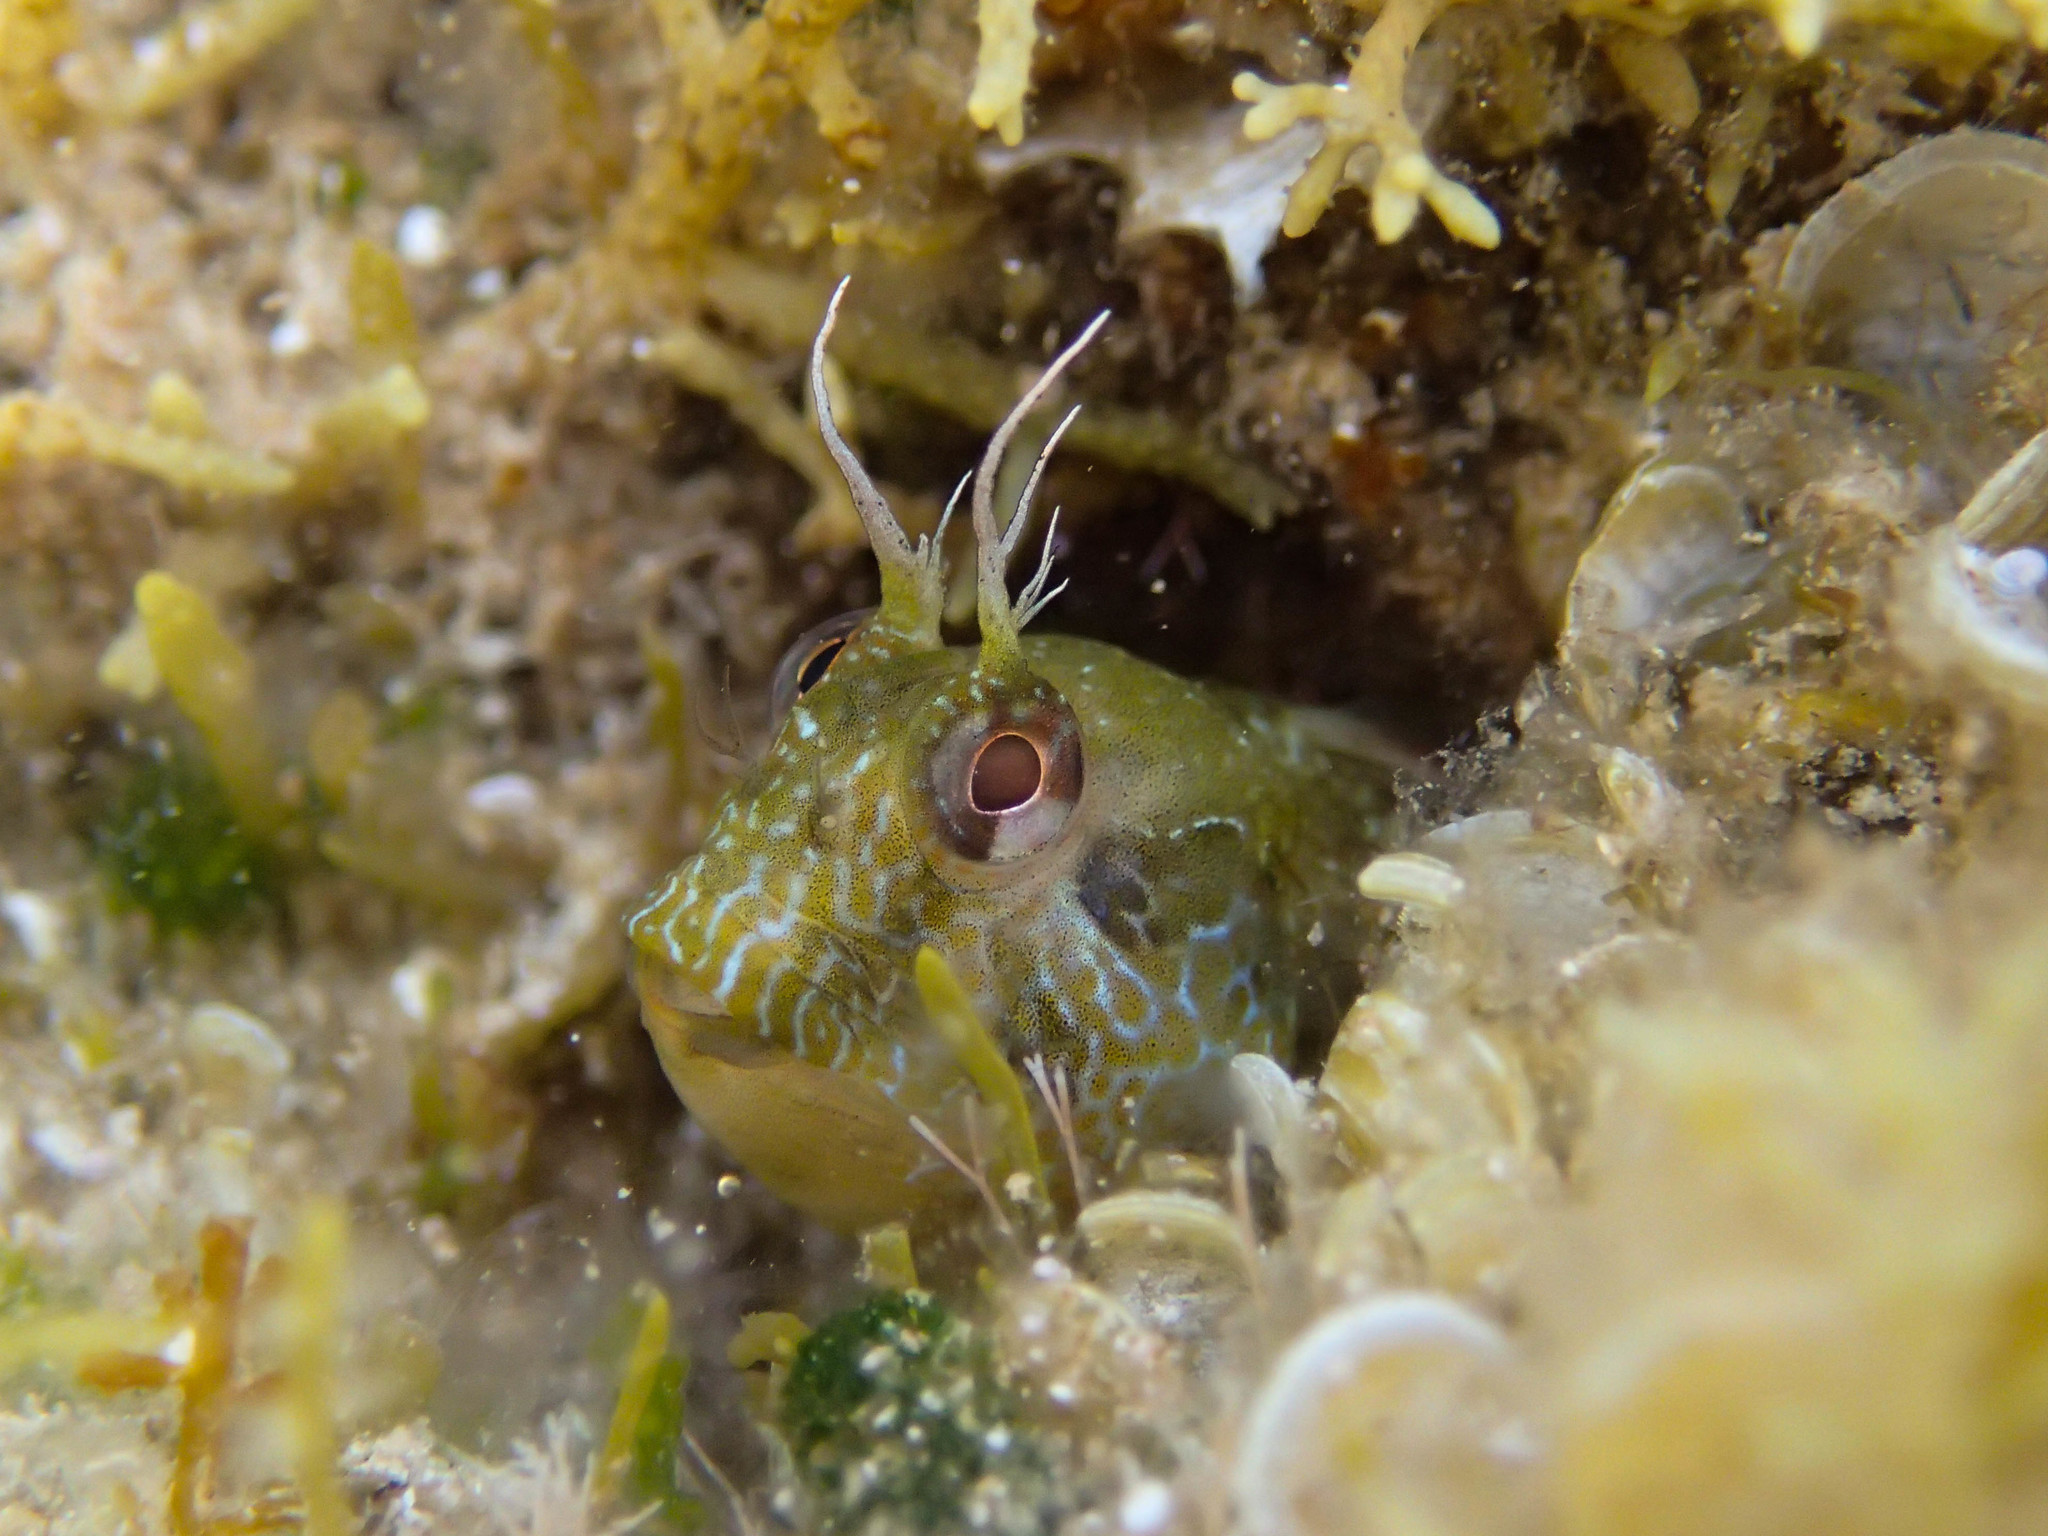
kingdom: Animalia
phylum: Chordata
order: Perciformes
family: Blenniidae
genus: Parablennius
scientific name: Parablennius incognitus
